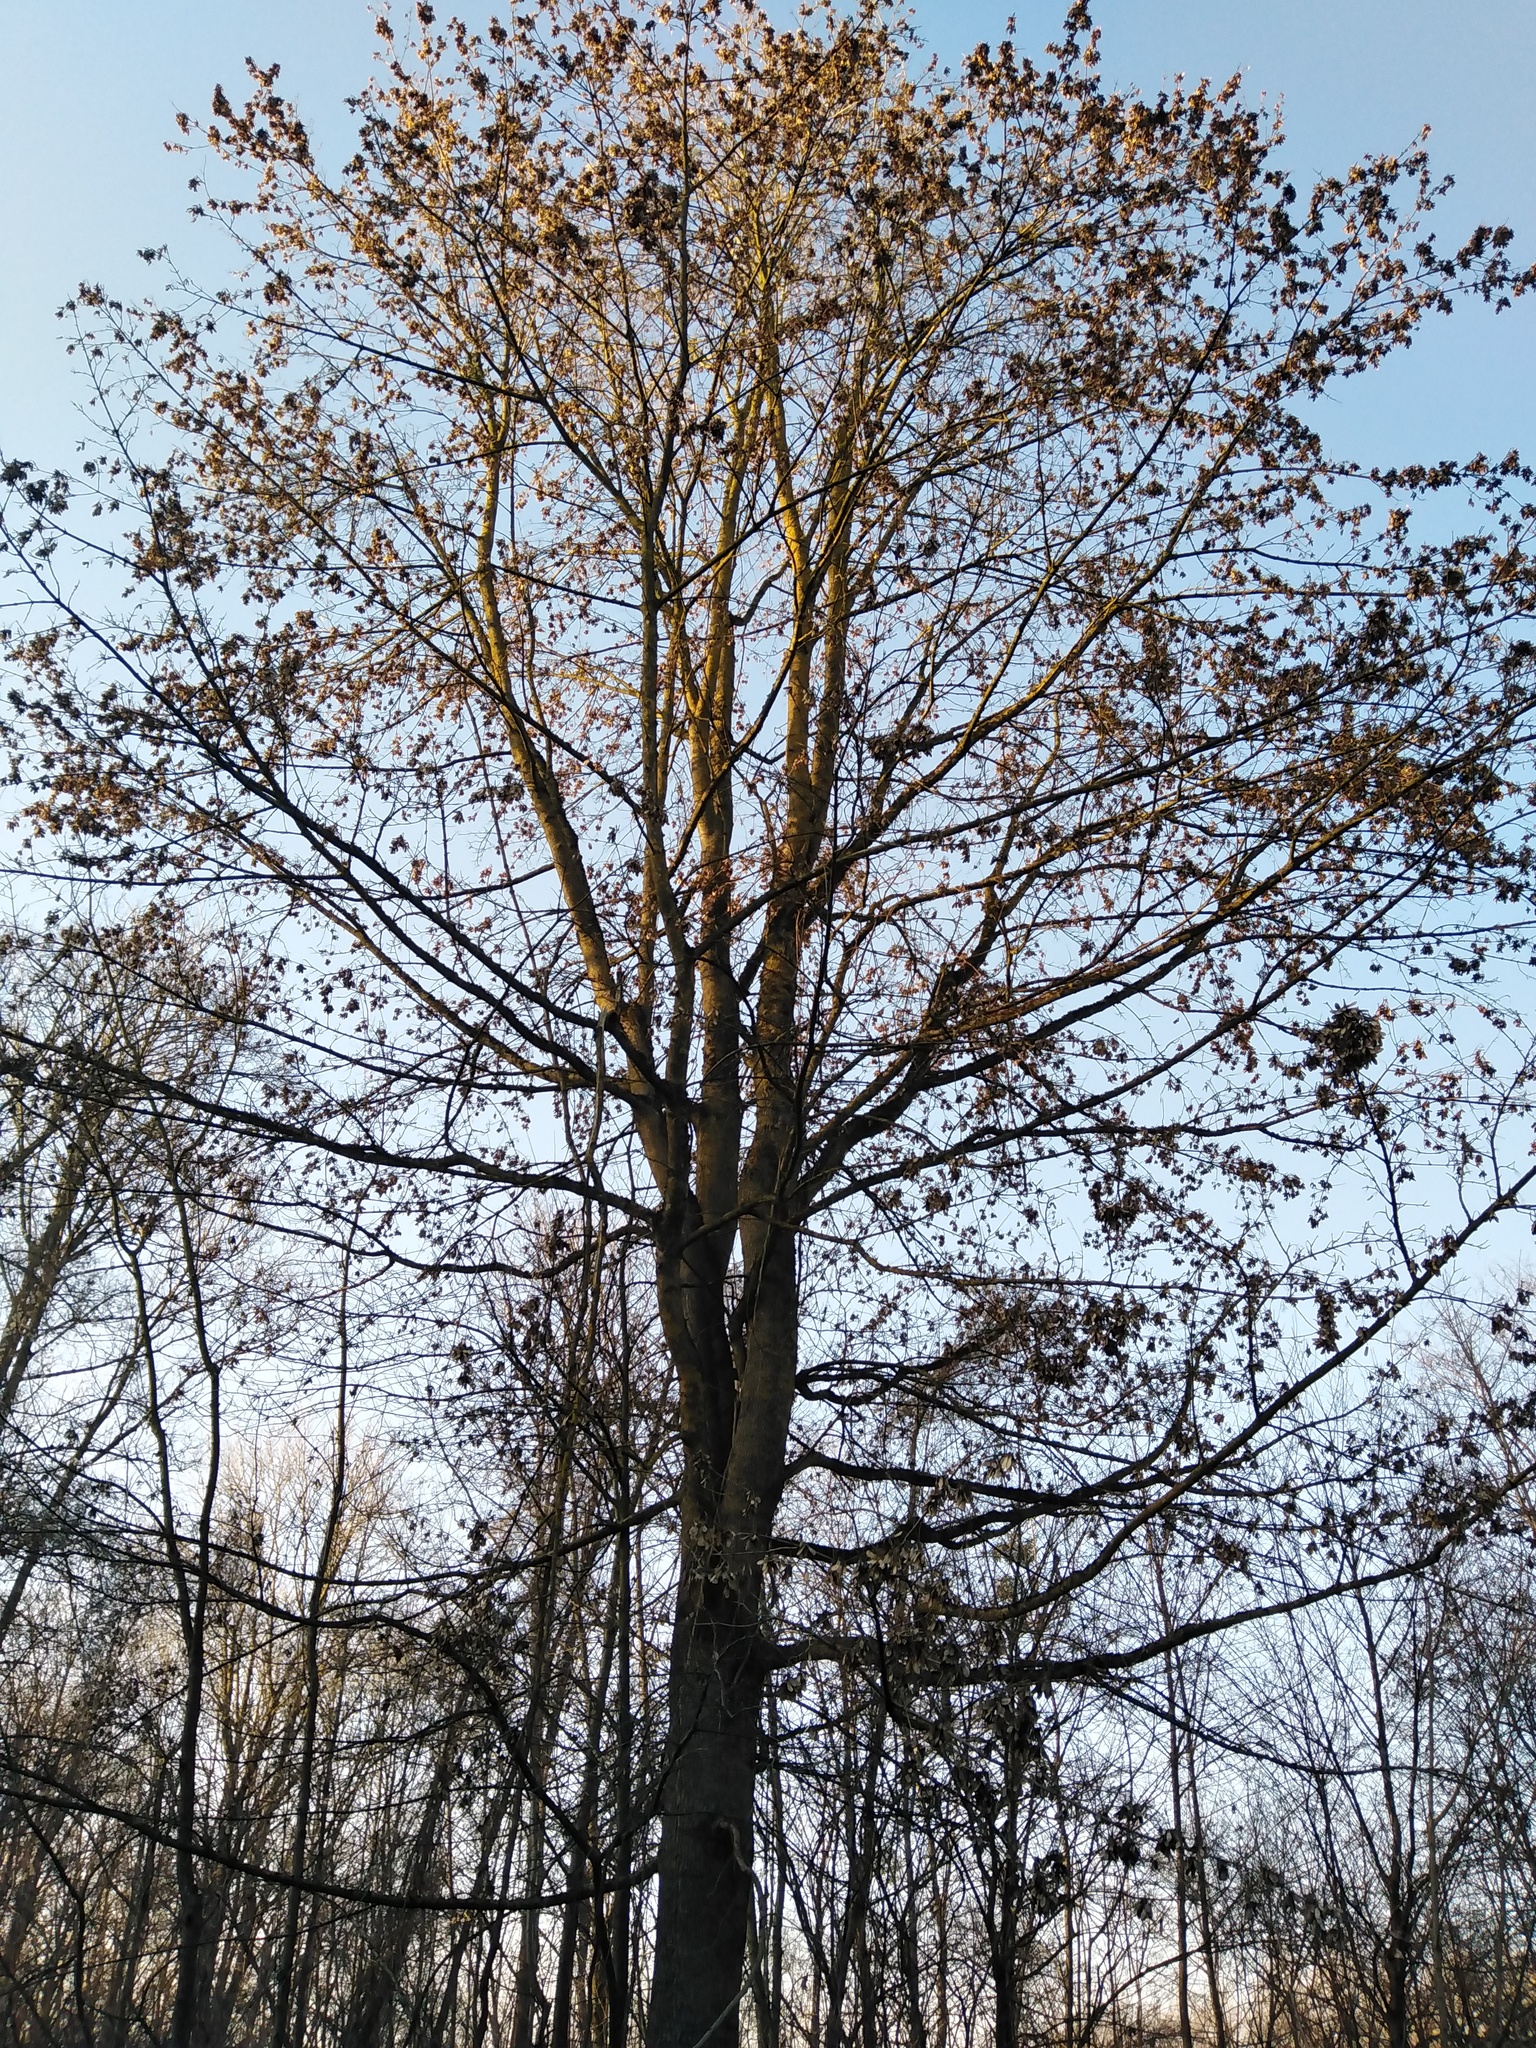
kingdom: Plantae
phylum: Tracheophyta
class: Magnoliopsida
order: Sapindales
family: Sapindaceae
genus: Acer
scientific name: Acer campestre
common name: Field maple
